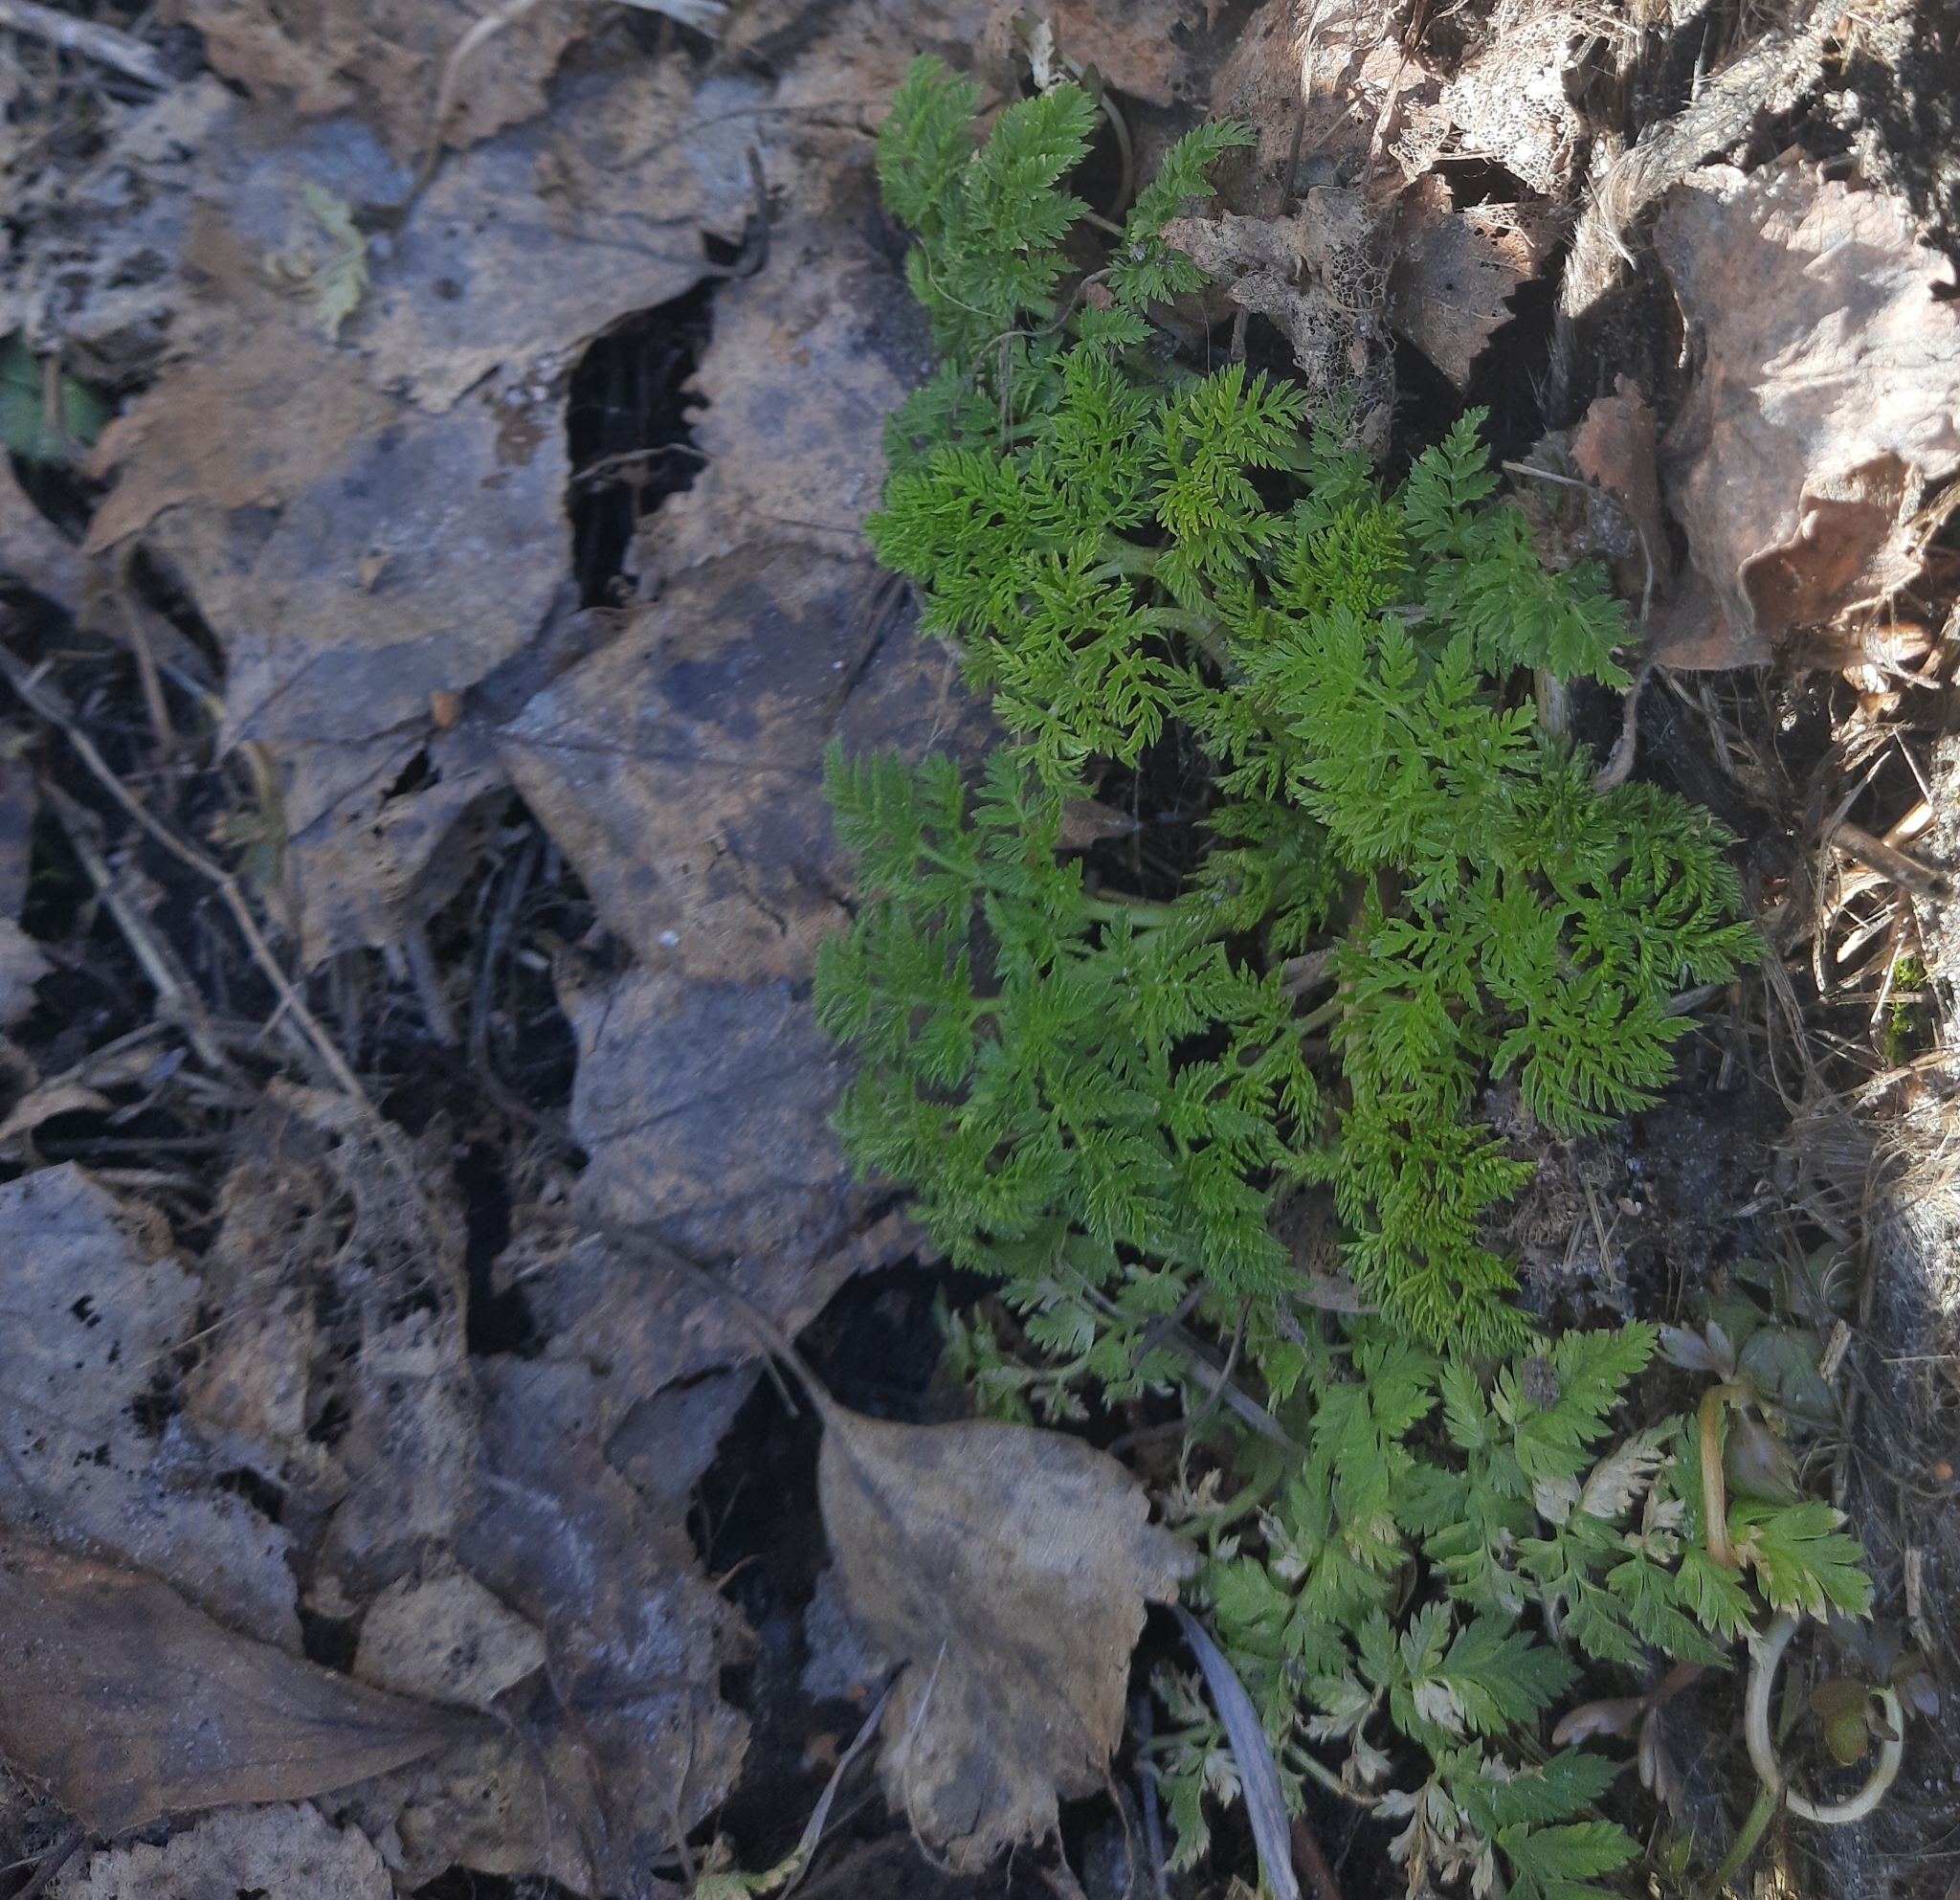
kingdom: Plantae
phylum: Tracheophyta
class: Magnoliopsida
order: Apiales
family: Apiaceae
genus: Anthriscus
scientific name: Anthriscus sylvestris
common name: Cow parsley
